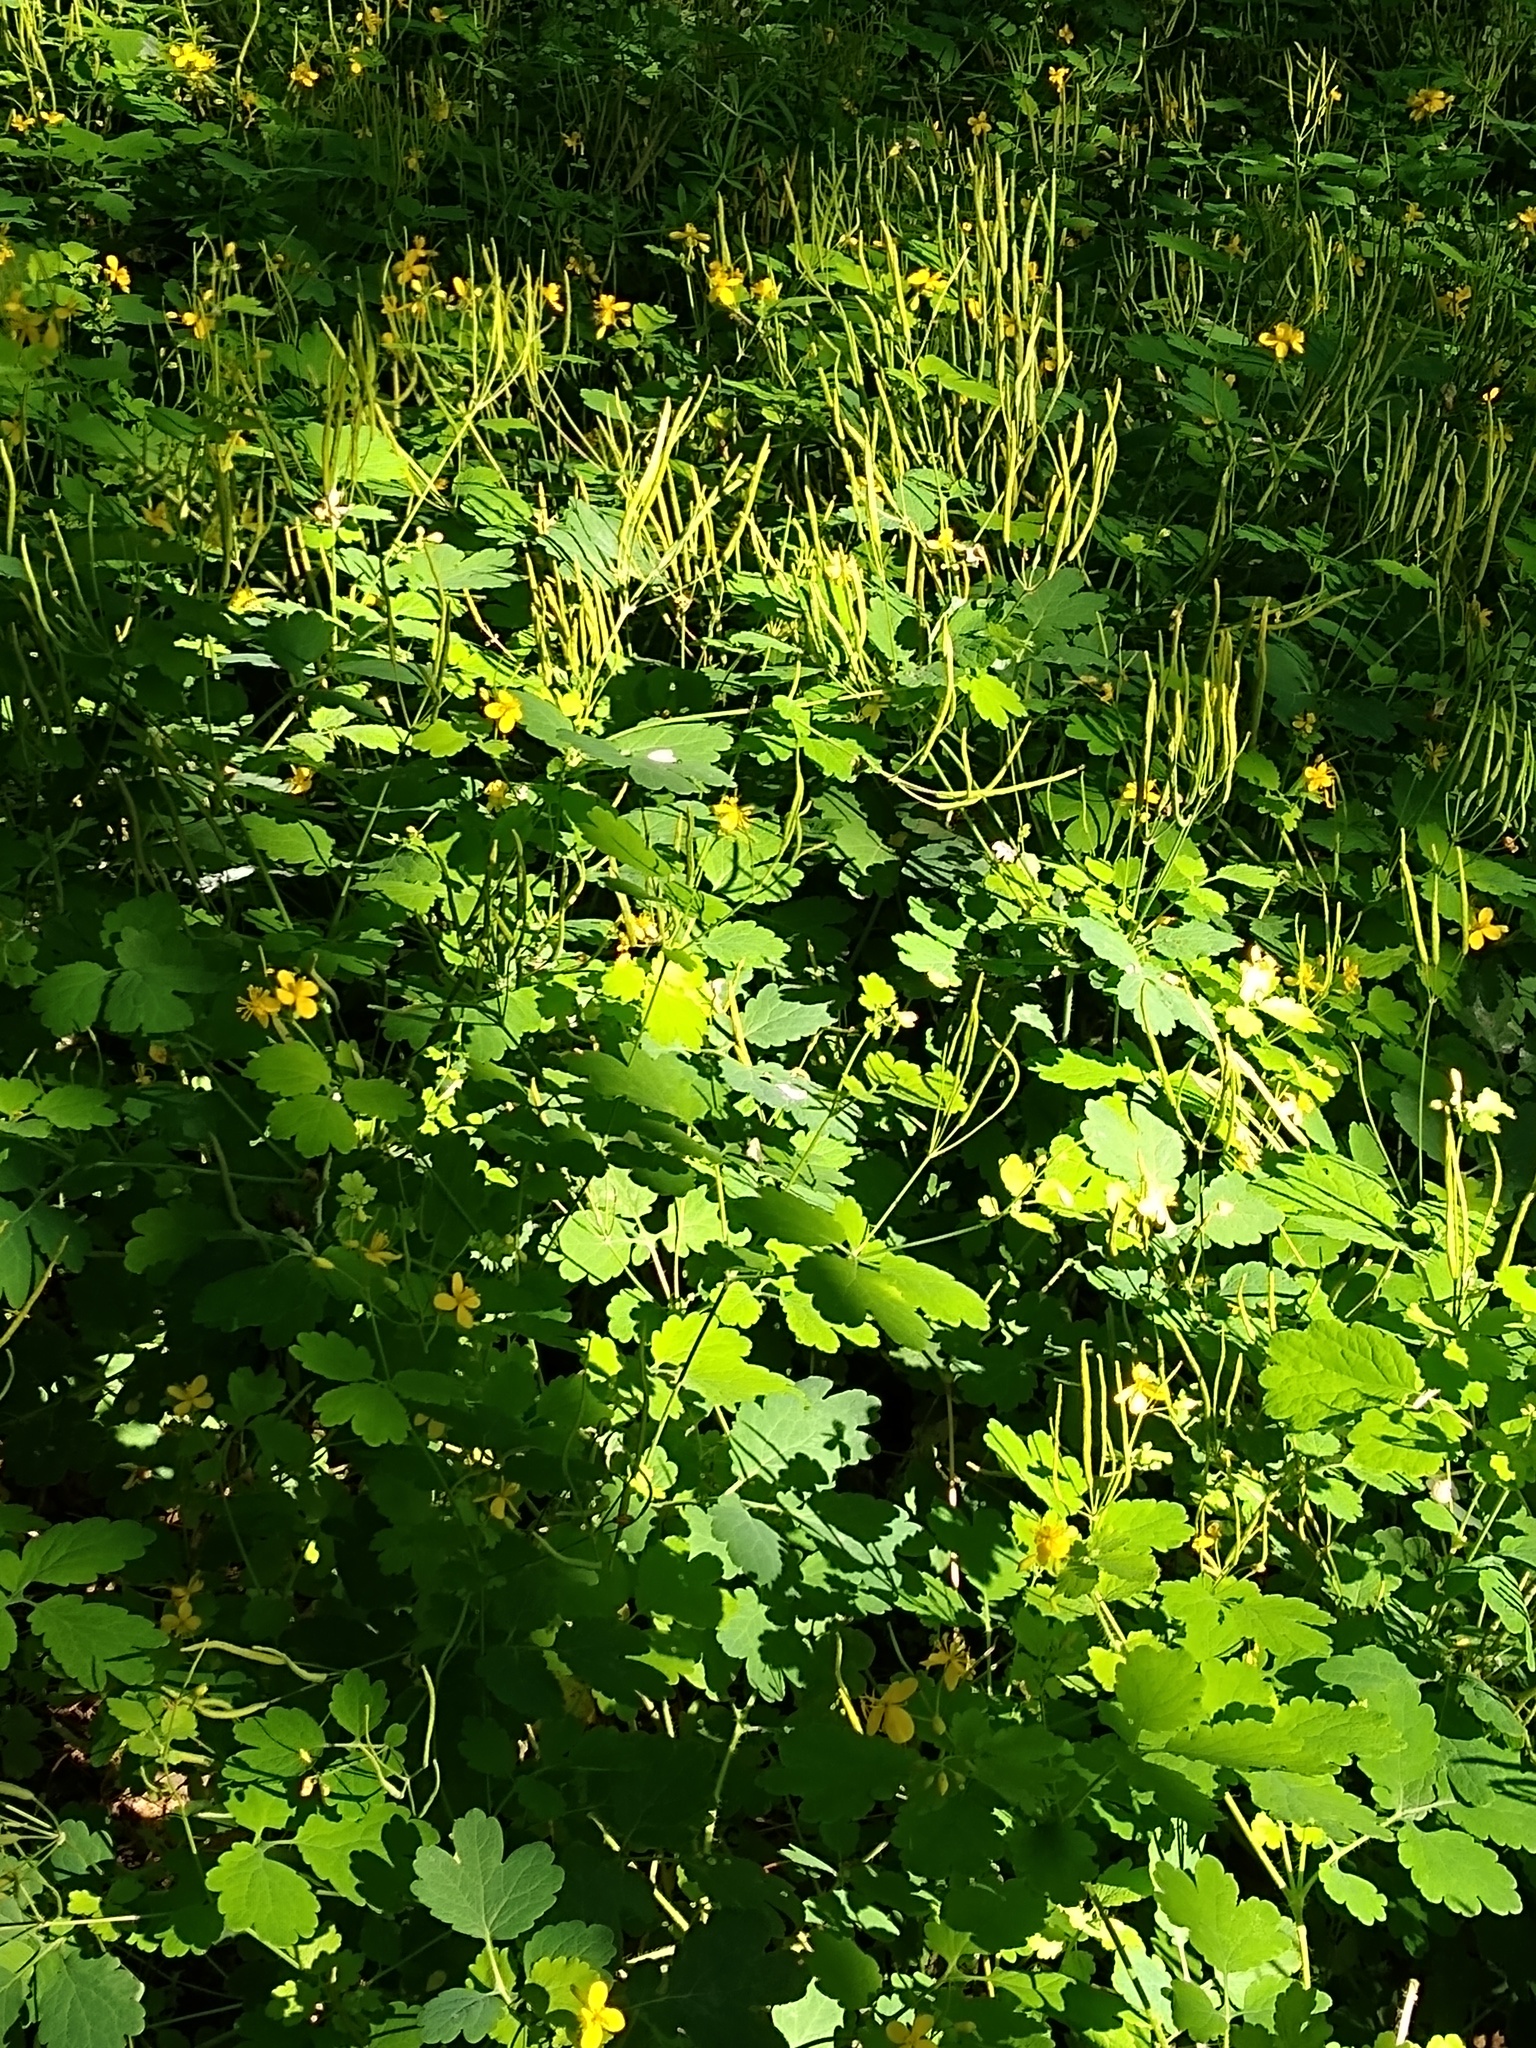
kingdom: Plantae
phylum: Tracheophyta
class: Magnoliopsida
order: Ranunculales
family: Papaveraceae
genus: Chelidonium
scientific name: Chelidonium majus
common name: Greater celandine
